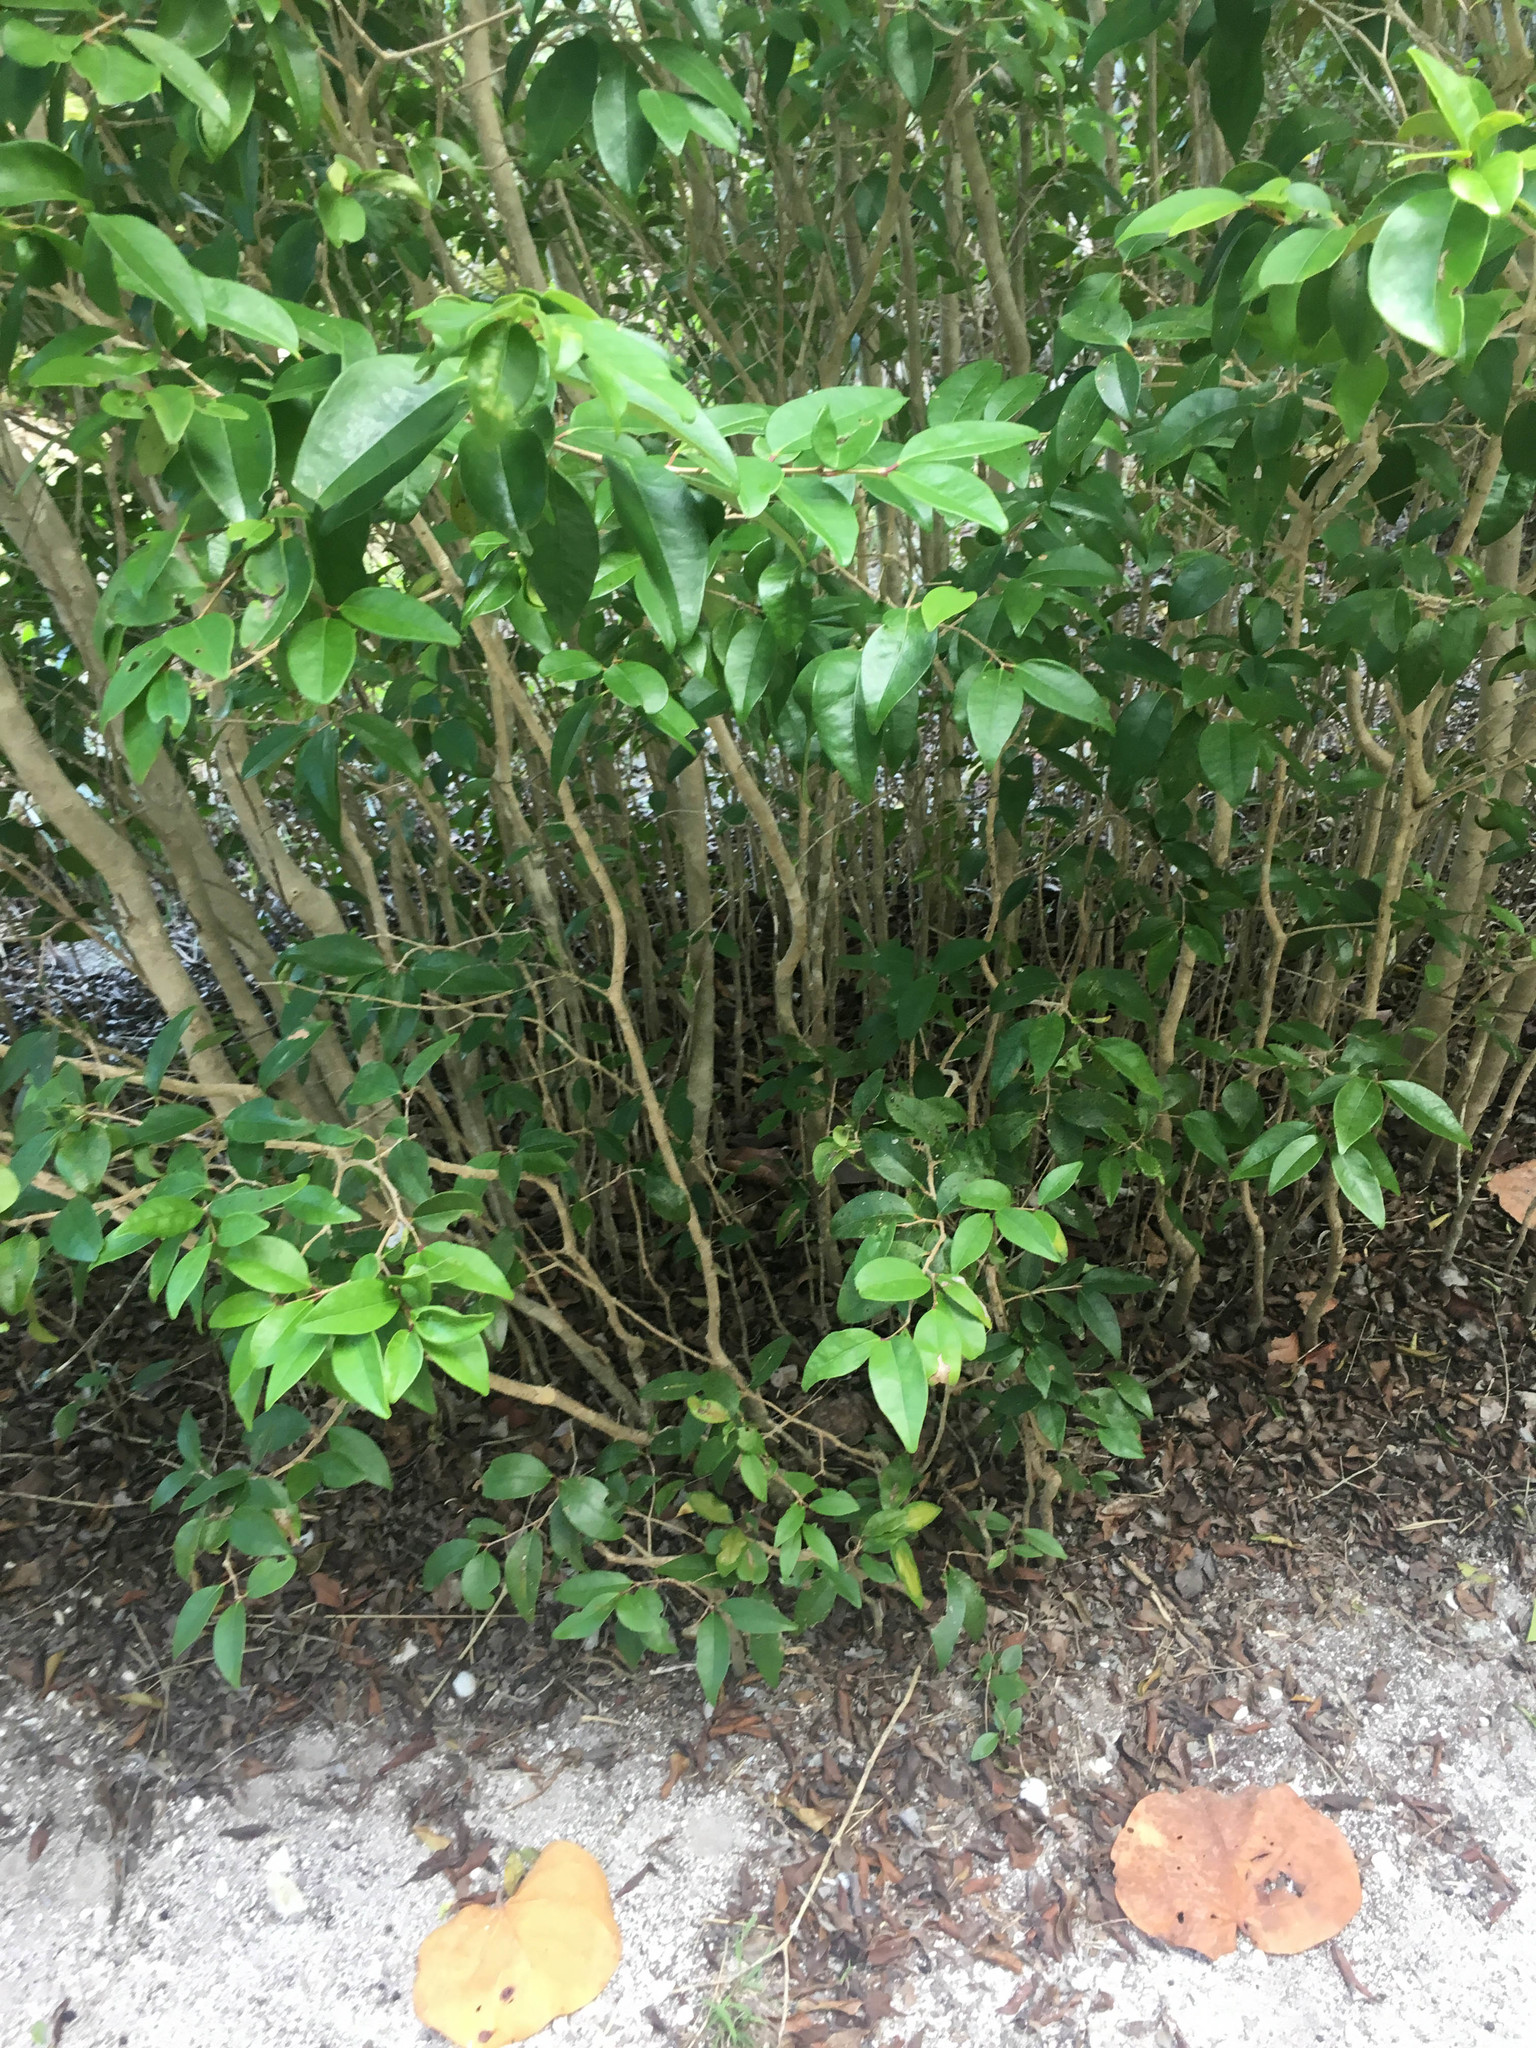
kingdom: Plantae
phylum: Tracheophyta
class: Magnoliopsida
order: Lamiales
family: Oleaceae
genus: Forestiera
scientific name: Forestiera segregata
